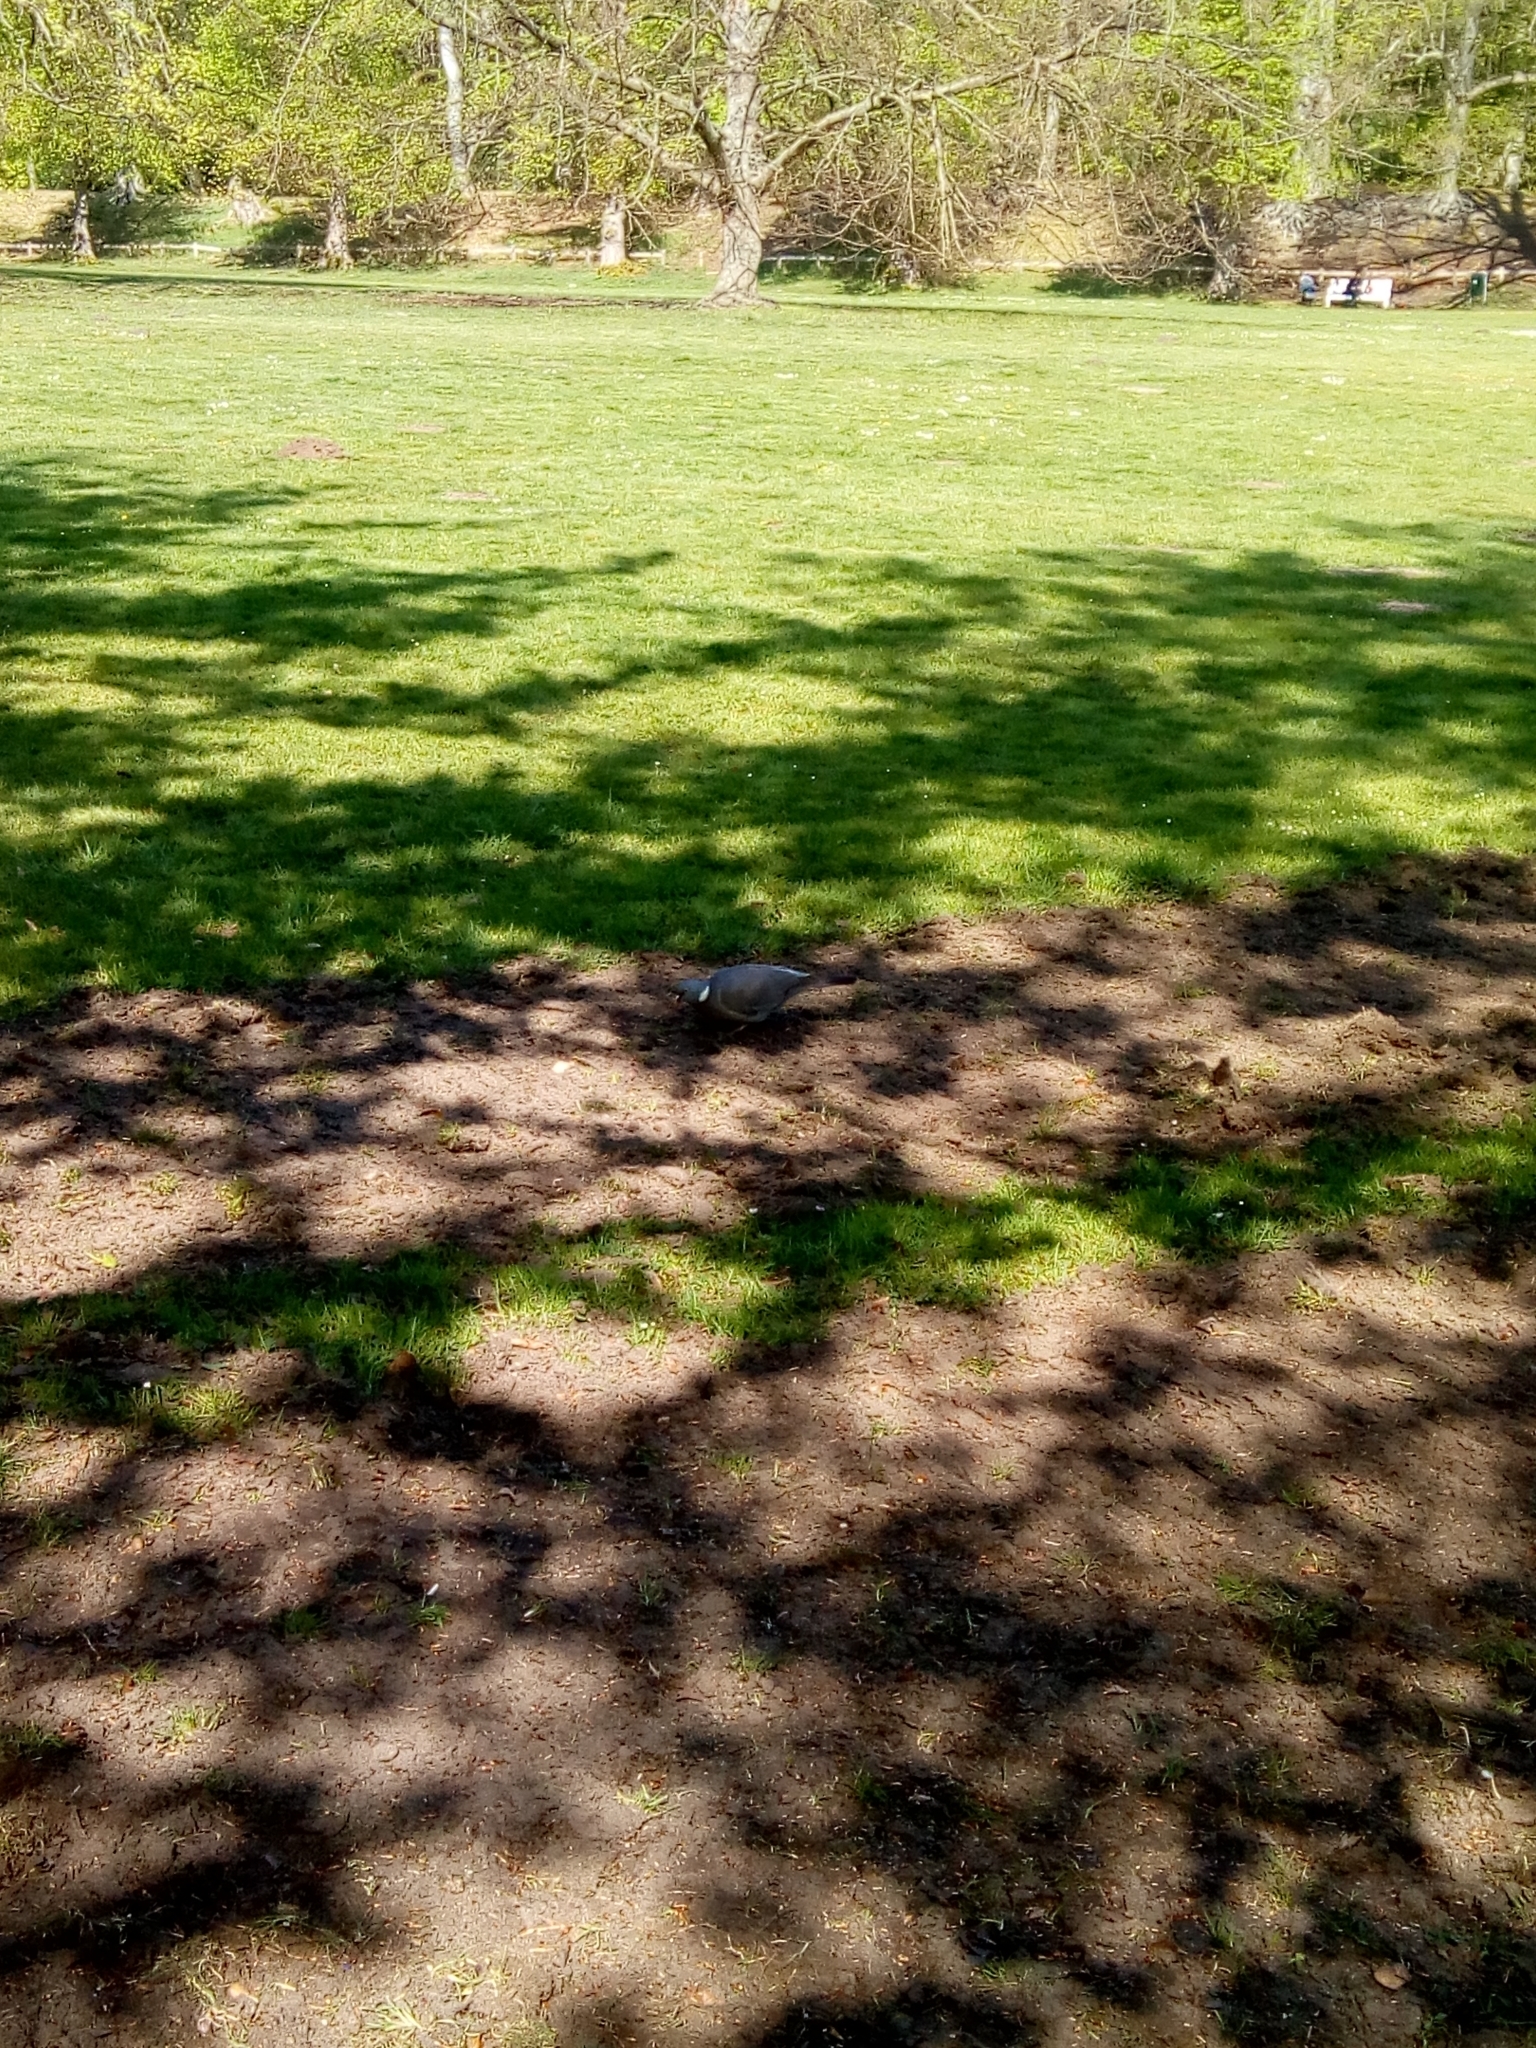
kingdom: Animalia
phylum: Chordata
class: Aves
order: Columbiformes
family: Columbidae
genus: Columba
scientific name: Columba palumbus
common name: Common wood pigeon
